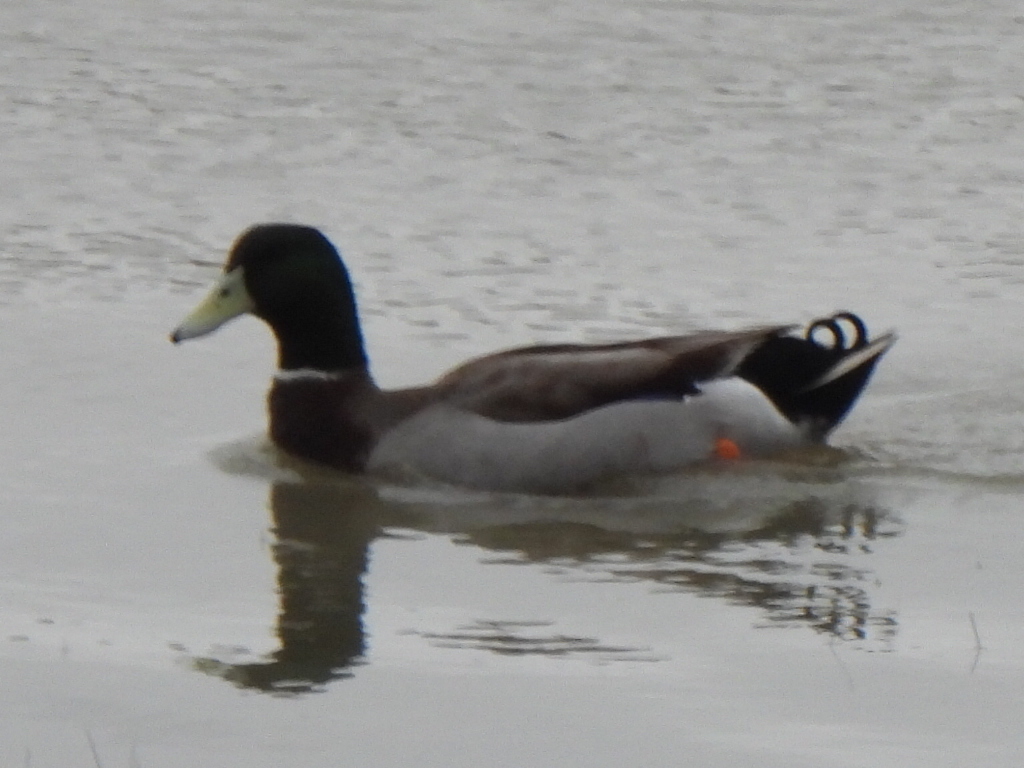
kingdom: Animalia
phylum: Chordata
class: Aves
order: Anseriformes
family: Anatidae
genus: Anas
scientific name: Anas platyrhynchos
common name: Mallard
